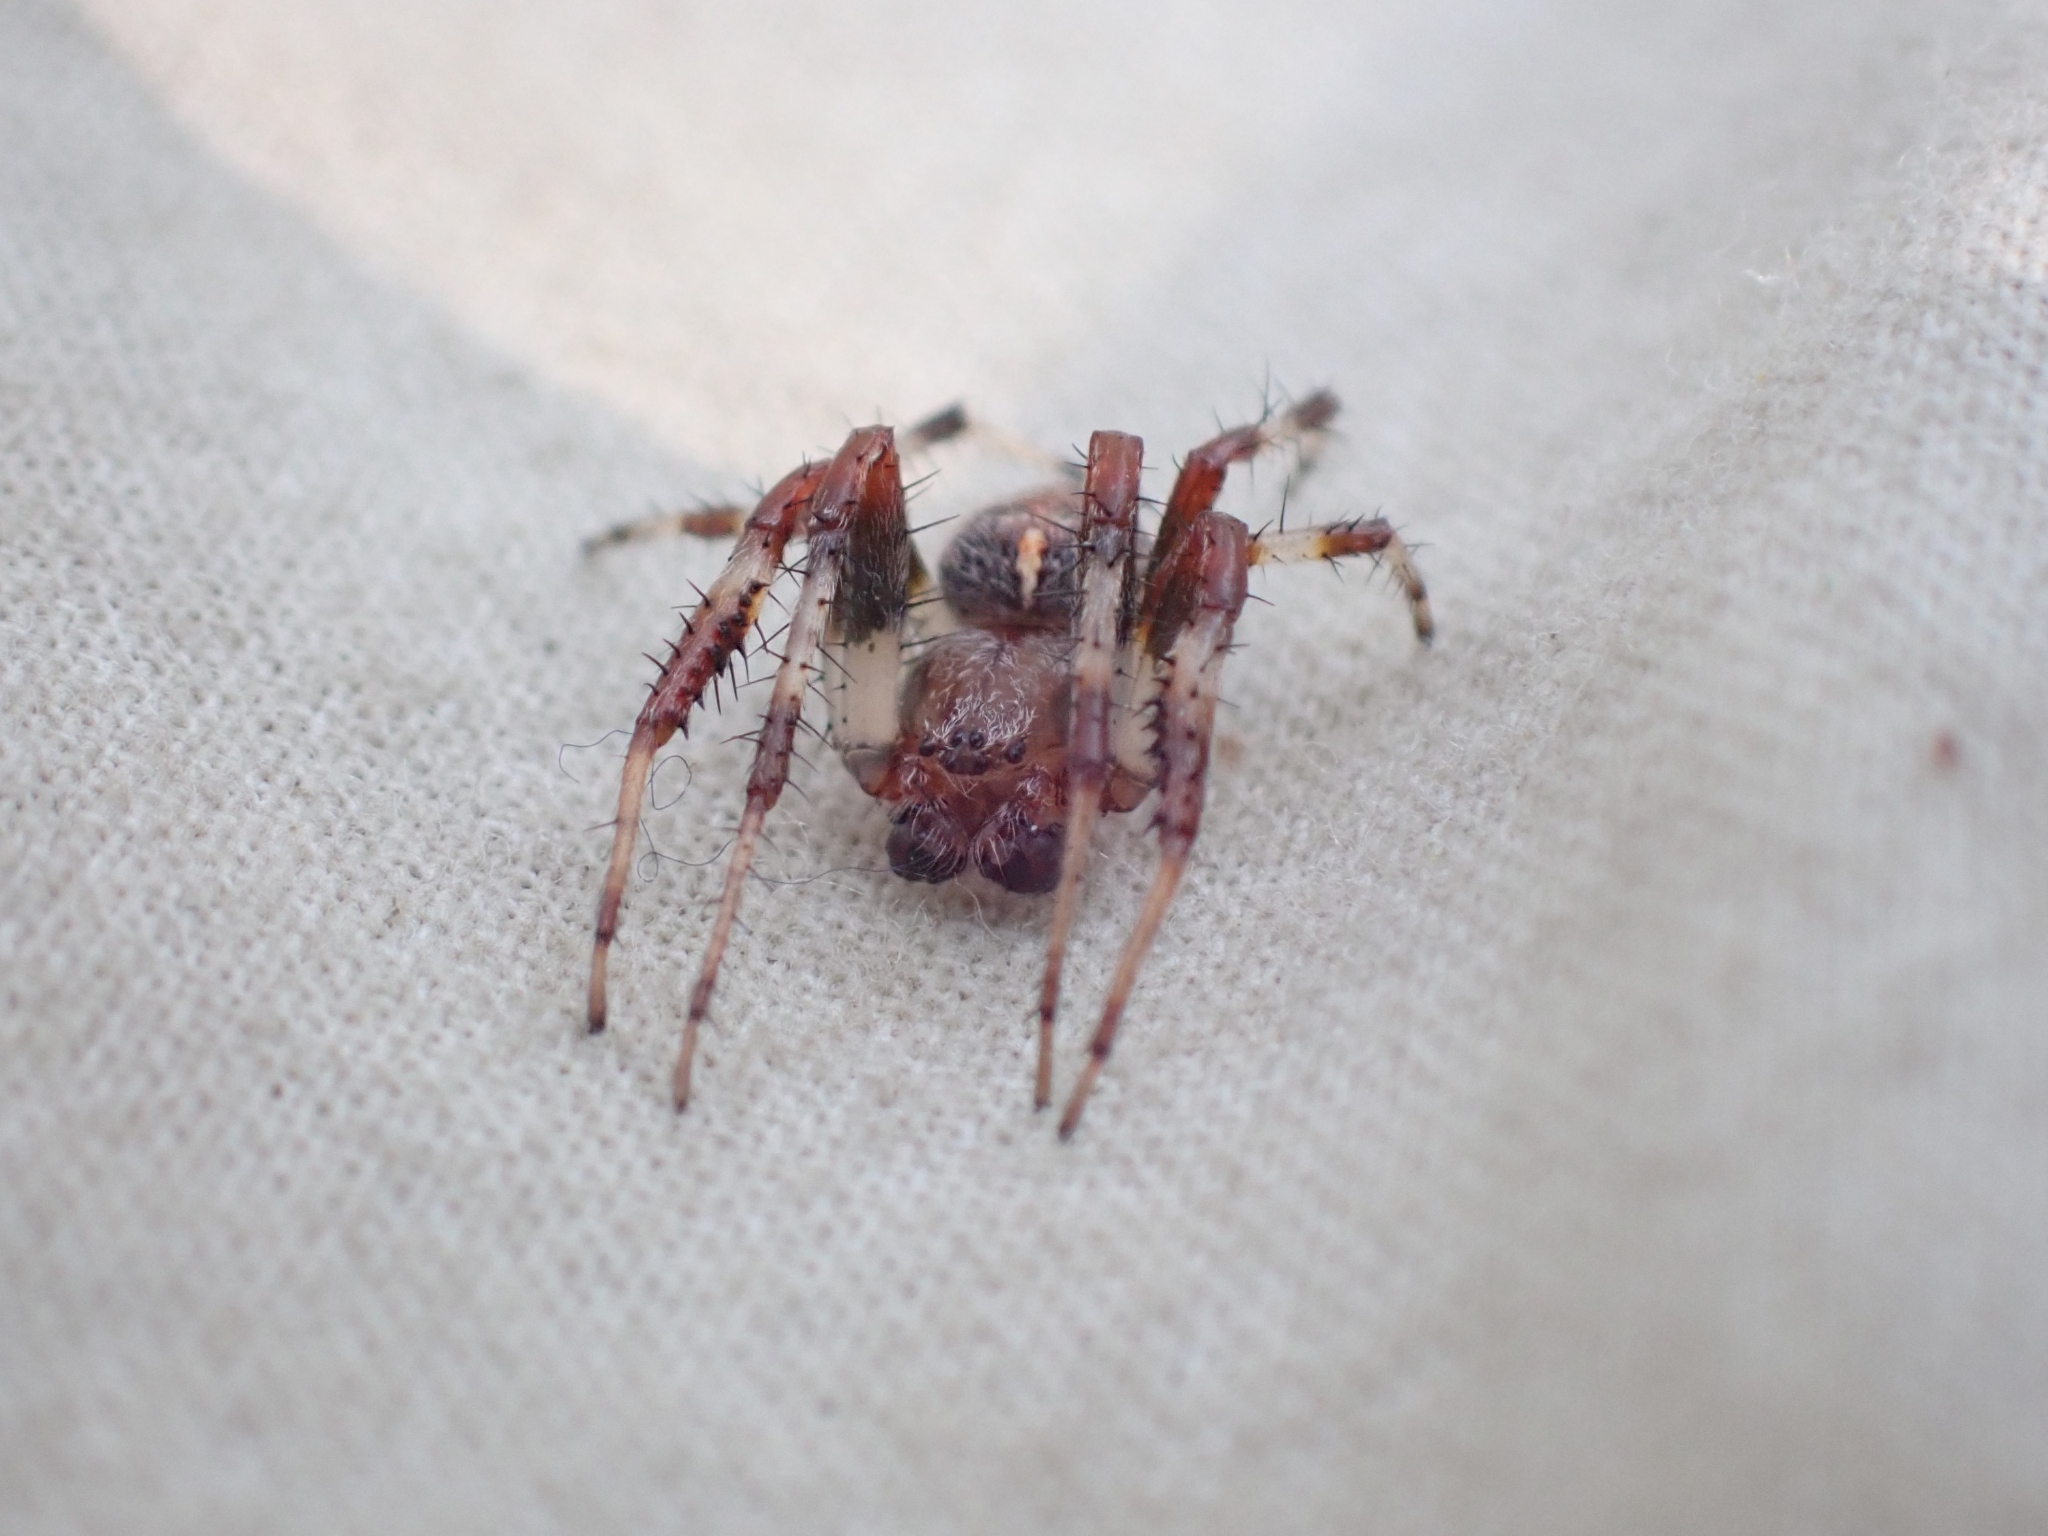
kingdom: Animalia
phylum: Arthropoda
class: Arachnida
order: Araneae
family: Araneidae
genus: Araneus
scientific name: Araneus marmoreus
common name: Marbled orbweaver
